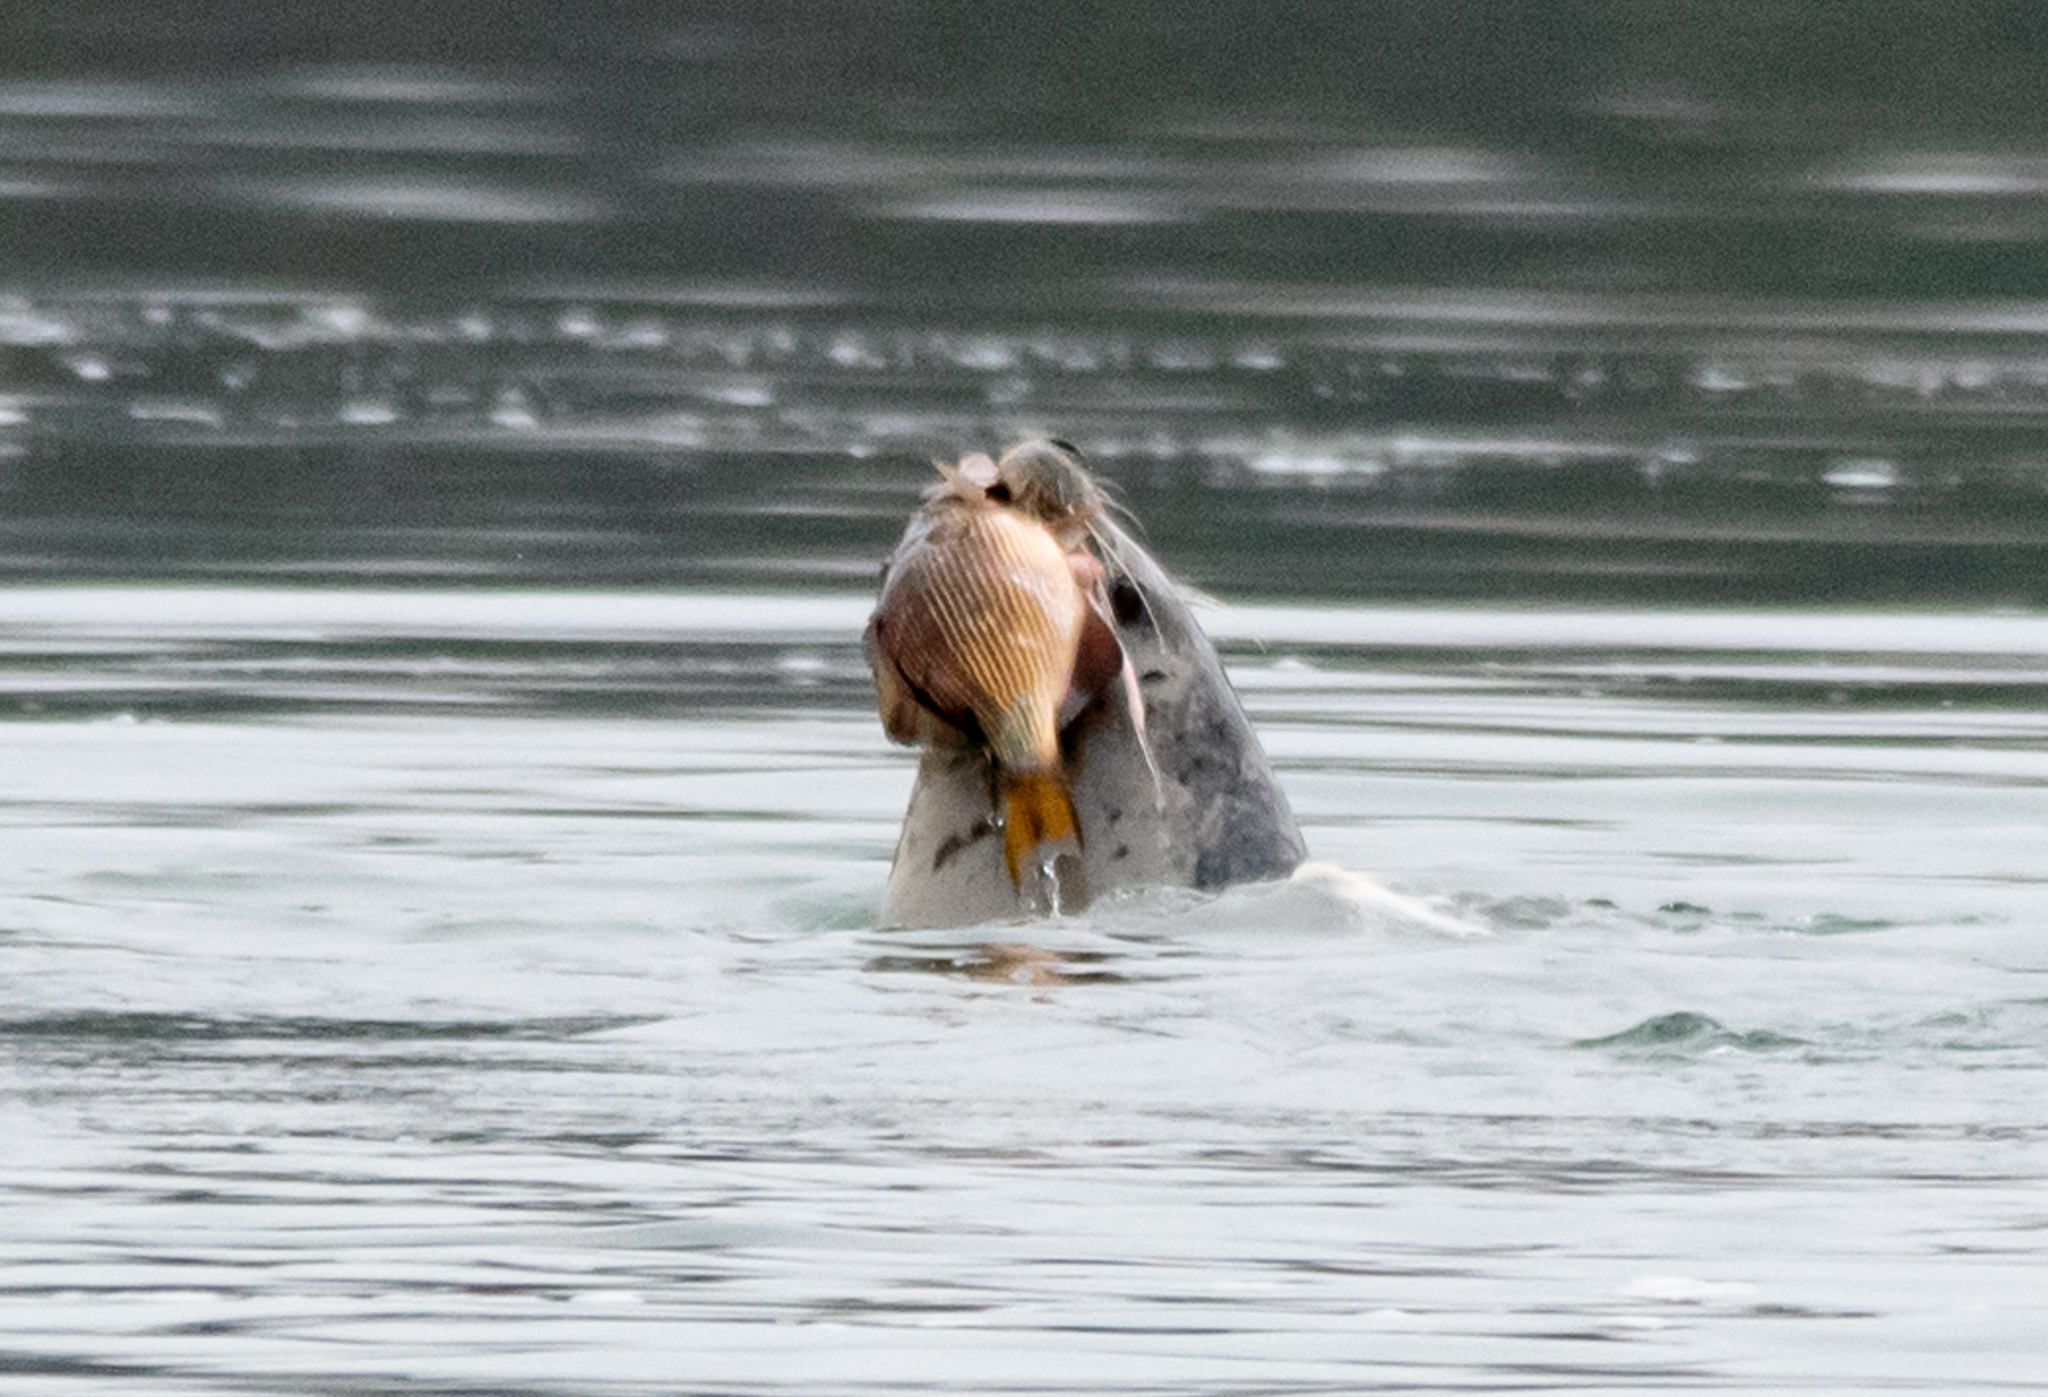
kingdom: Animalia
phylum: Chordata
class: Mammalia
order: Carnivora
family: Phocidae
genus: Phoca
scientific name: Phoca vitulina
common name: Harbor seal
